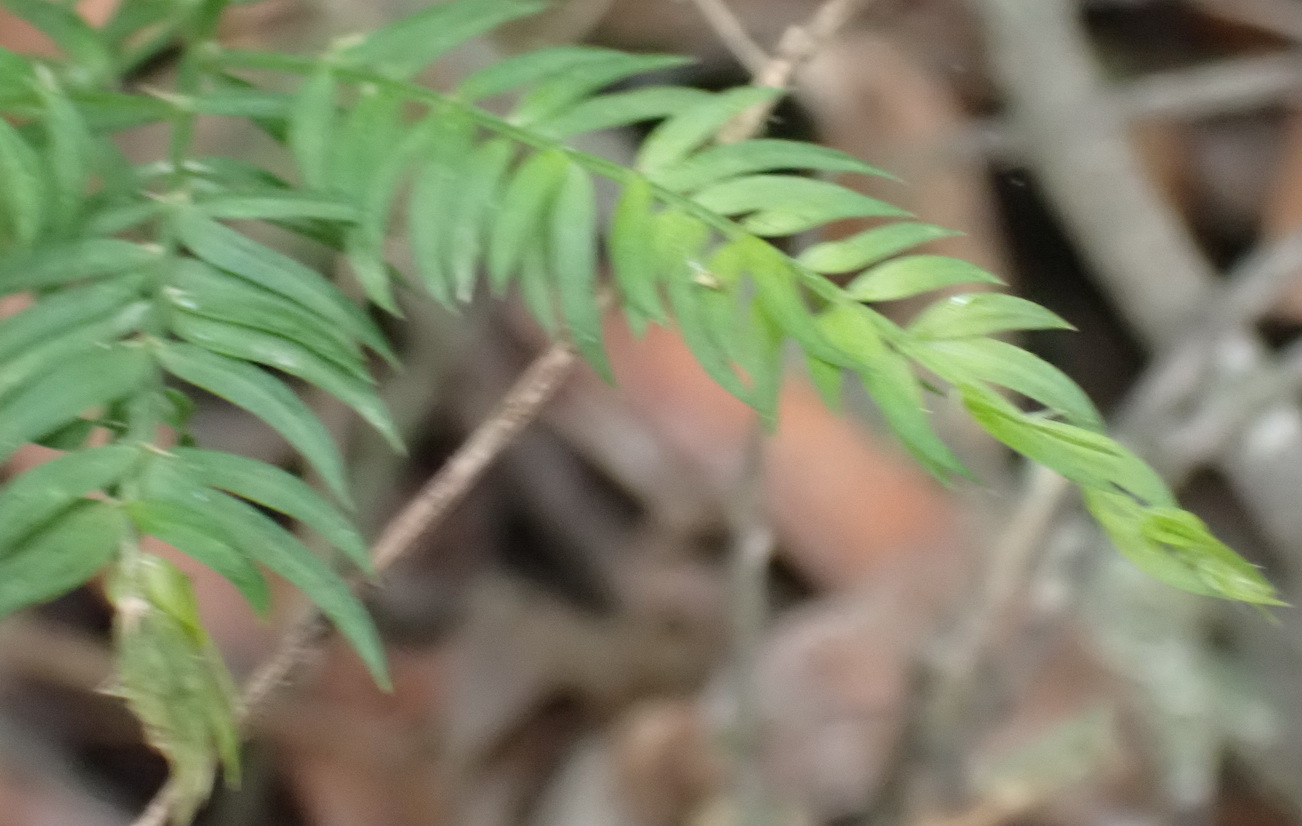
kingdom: Plantae
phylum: Tracheophyta
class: Liliopsida
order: Asparagales
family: Asparagaceae
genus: Asparagus
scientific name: Asparagus scandens
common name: Asparagus-fern
